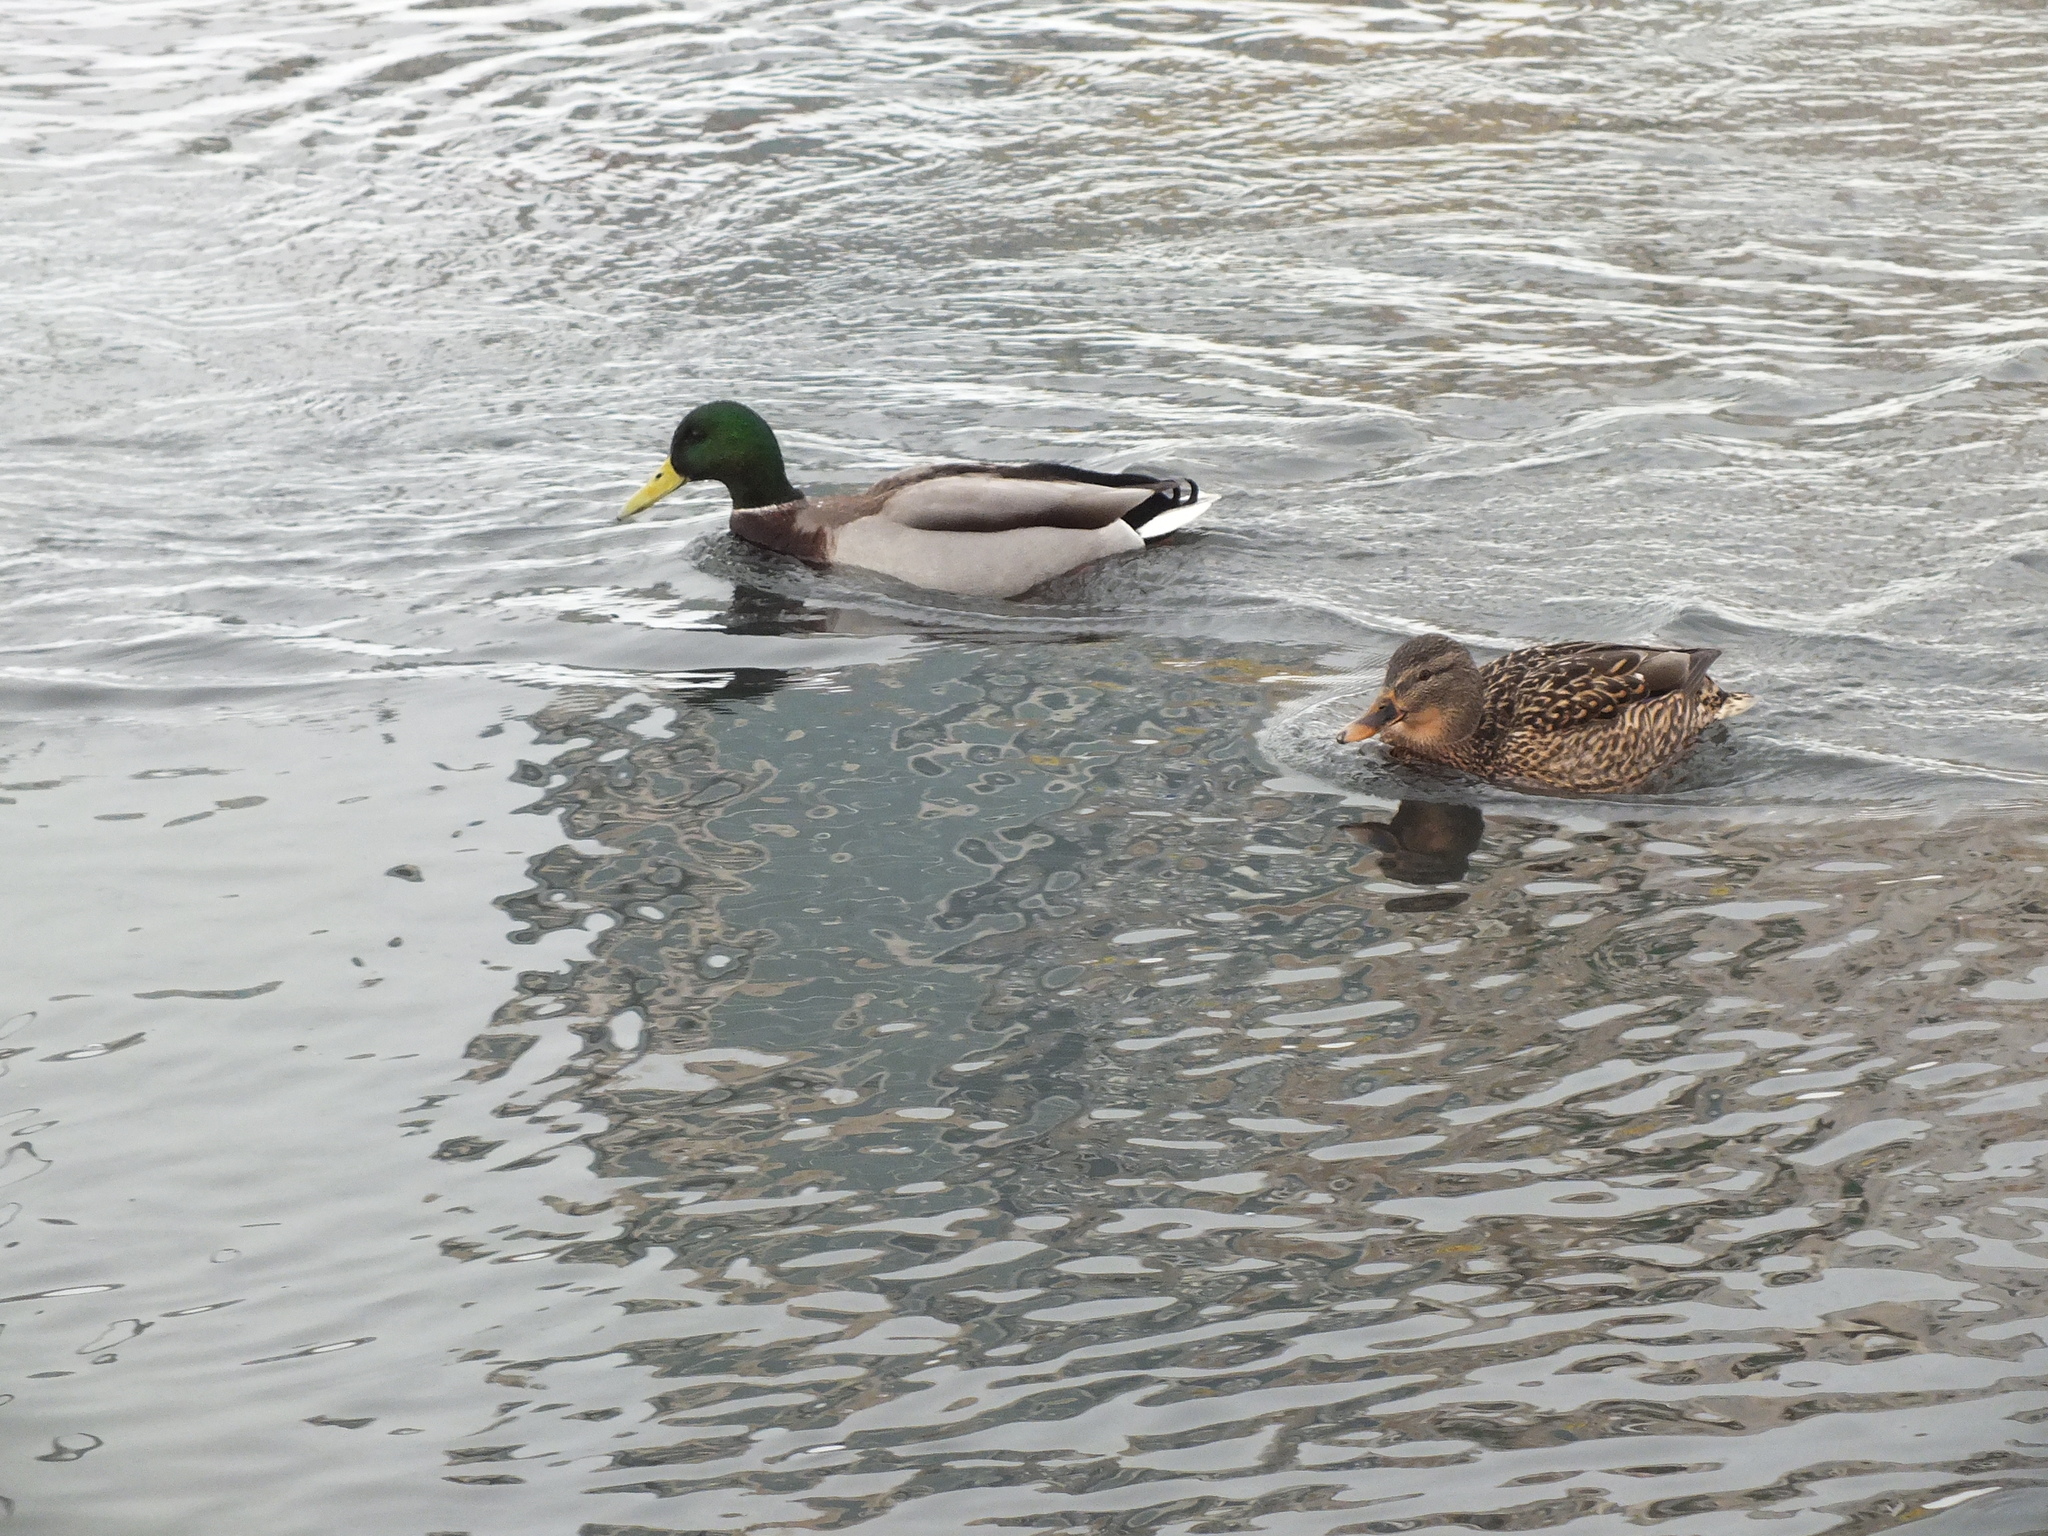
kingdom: Animalia
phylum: Chordata
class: Aves
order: Anseriformes
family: Anatidae
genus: Anas
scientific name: Anas platyrhynchos
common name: Mallard
